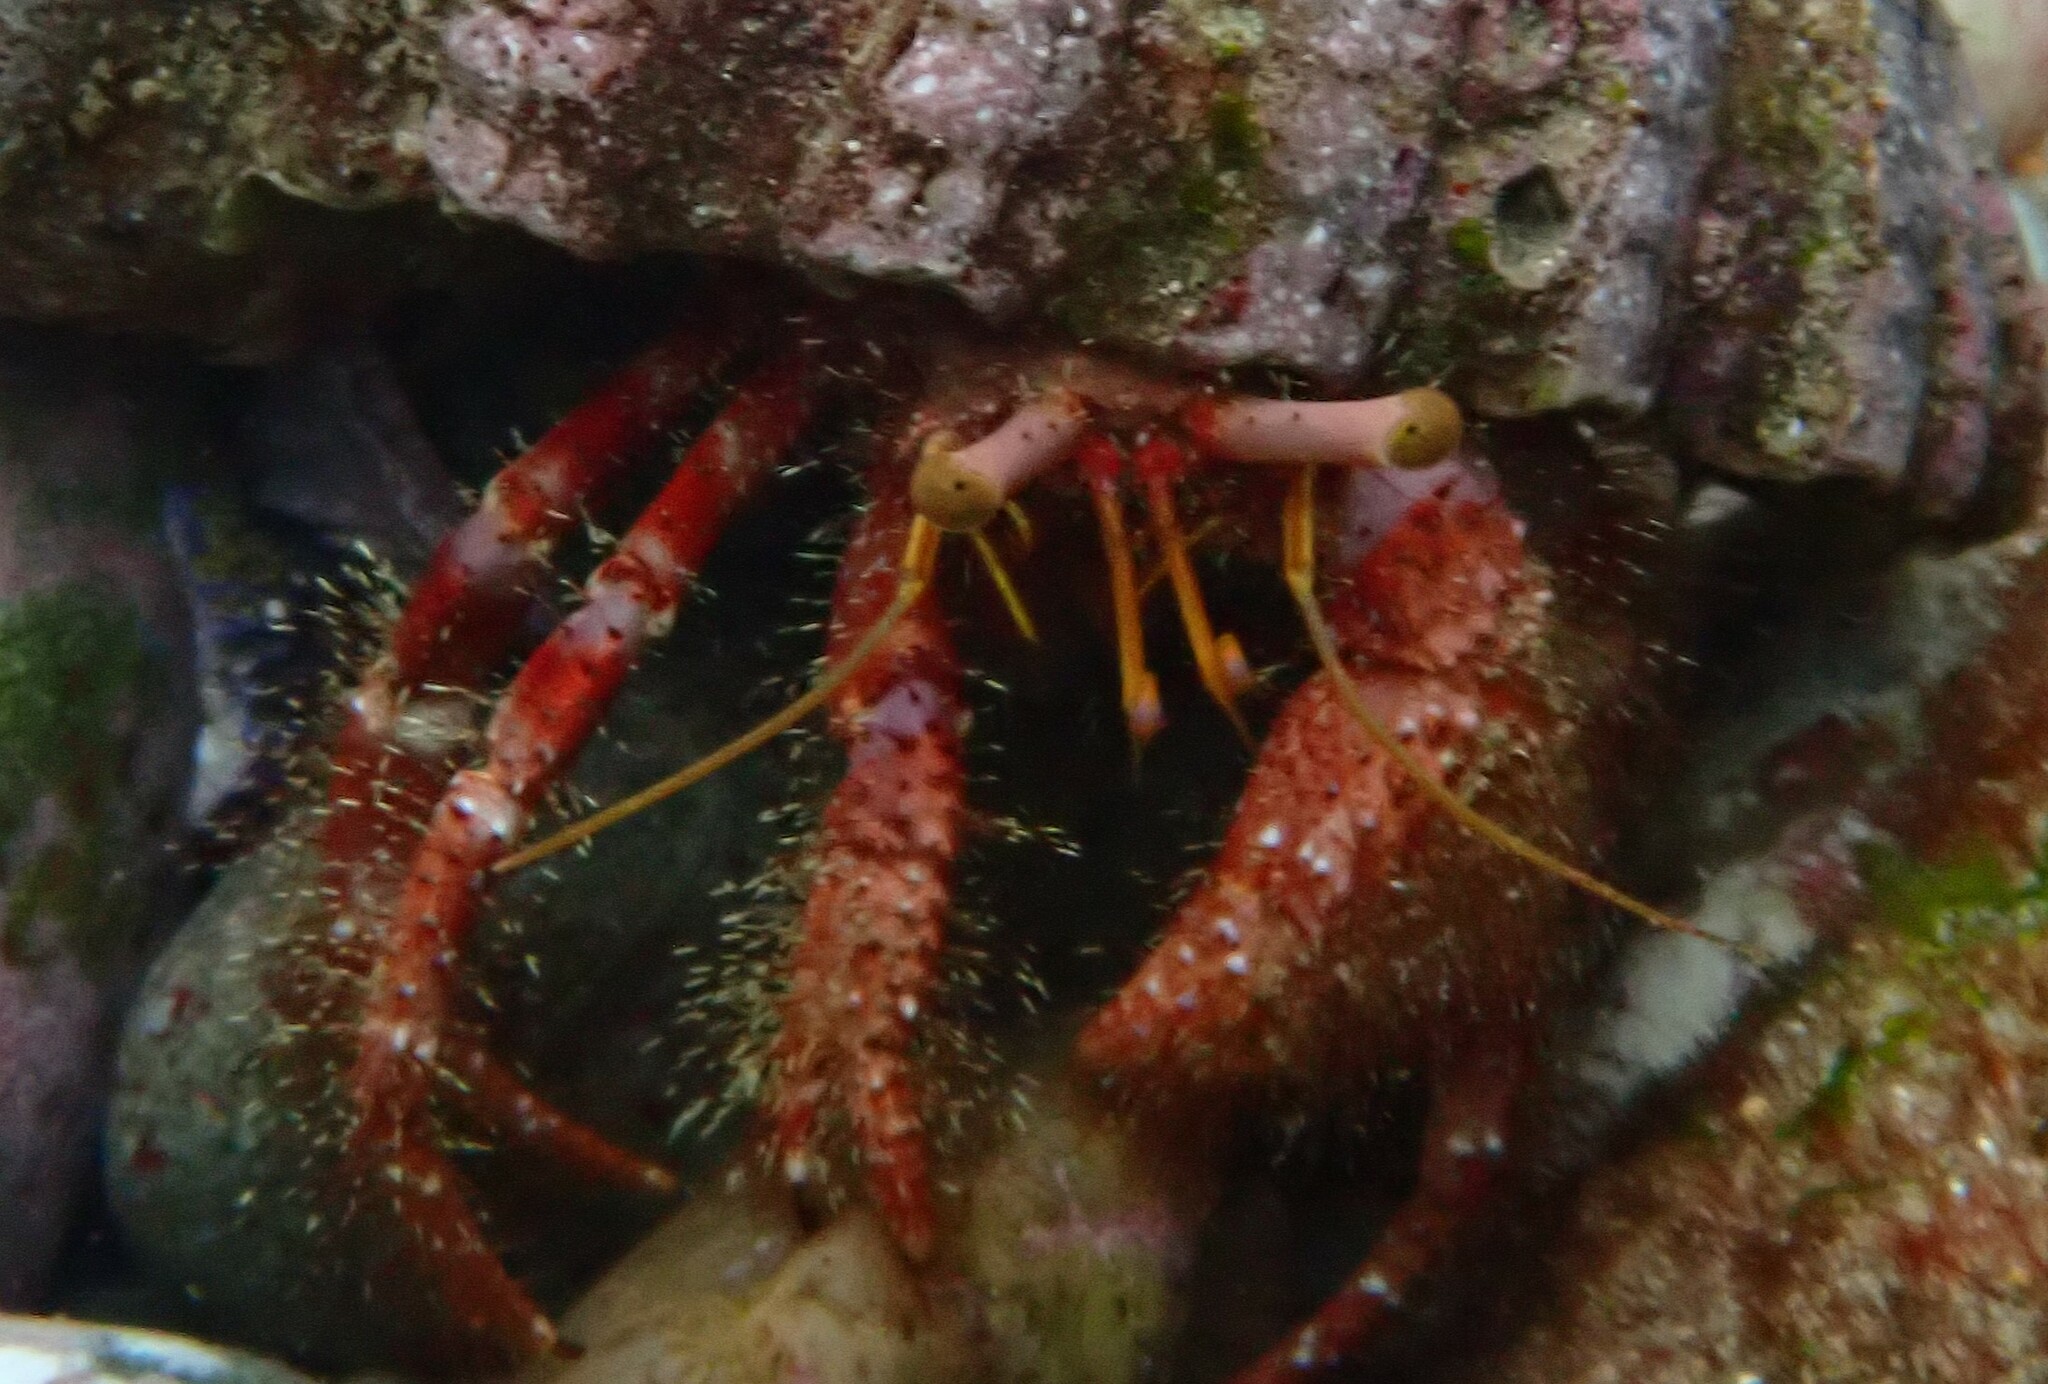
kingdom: Animalia
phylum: Arthropoda
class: Malacostraca
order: Decapoda
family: Diogenidae
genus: Dardanus
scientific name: Dardanus crassimanus
